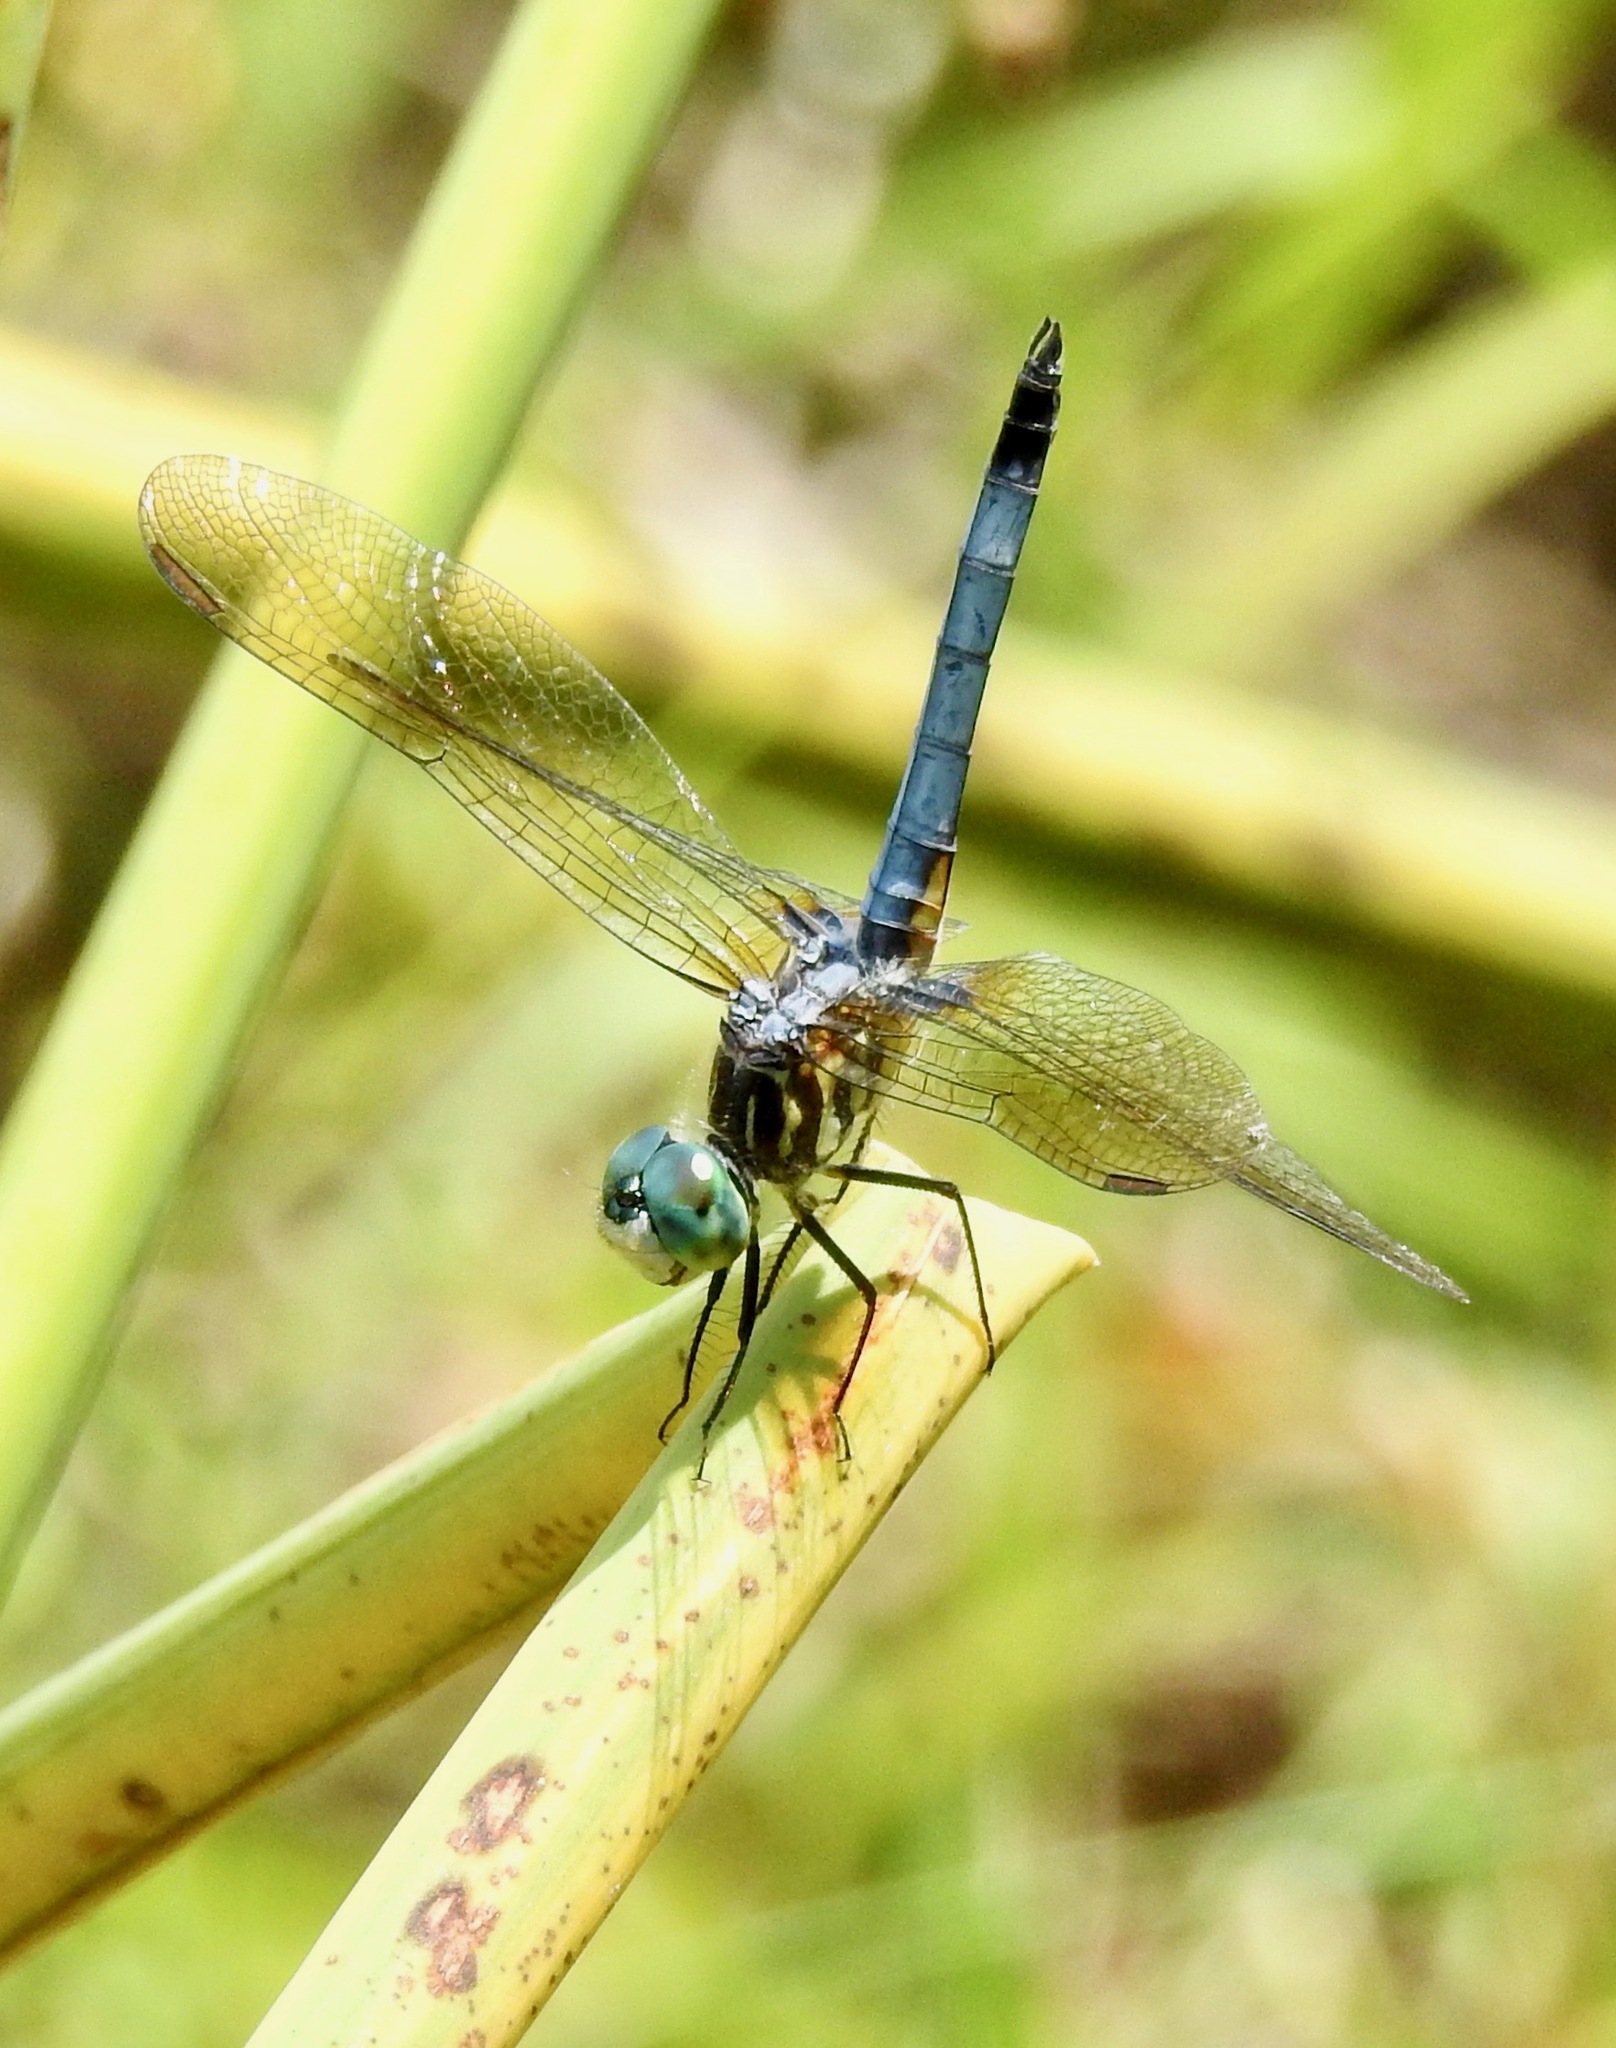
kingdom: Animalia
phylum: Arthropoda
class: Insecta
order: Odonata
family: Libellulidae
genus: Pachydiplax
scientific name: Pachydiplax longipennis
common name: Blue dasher
